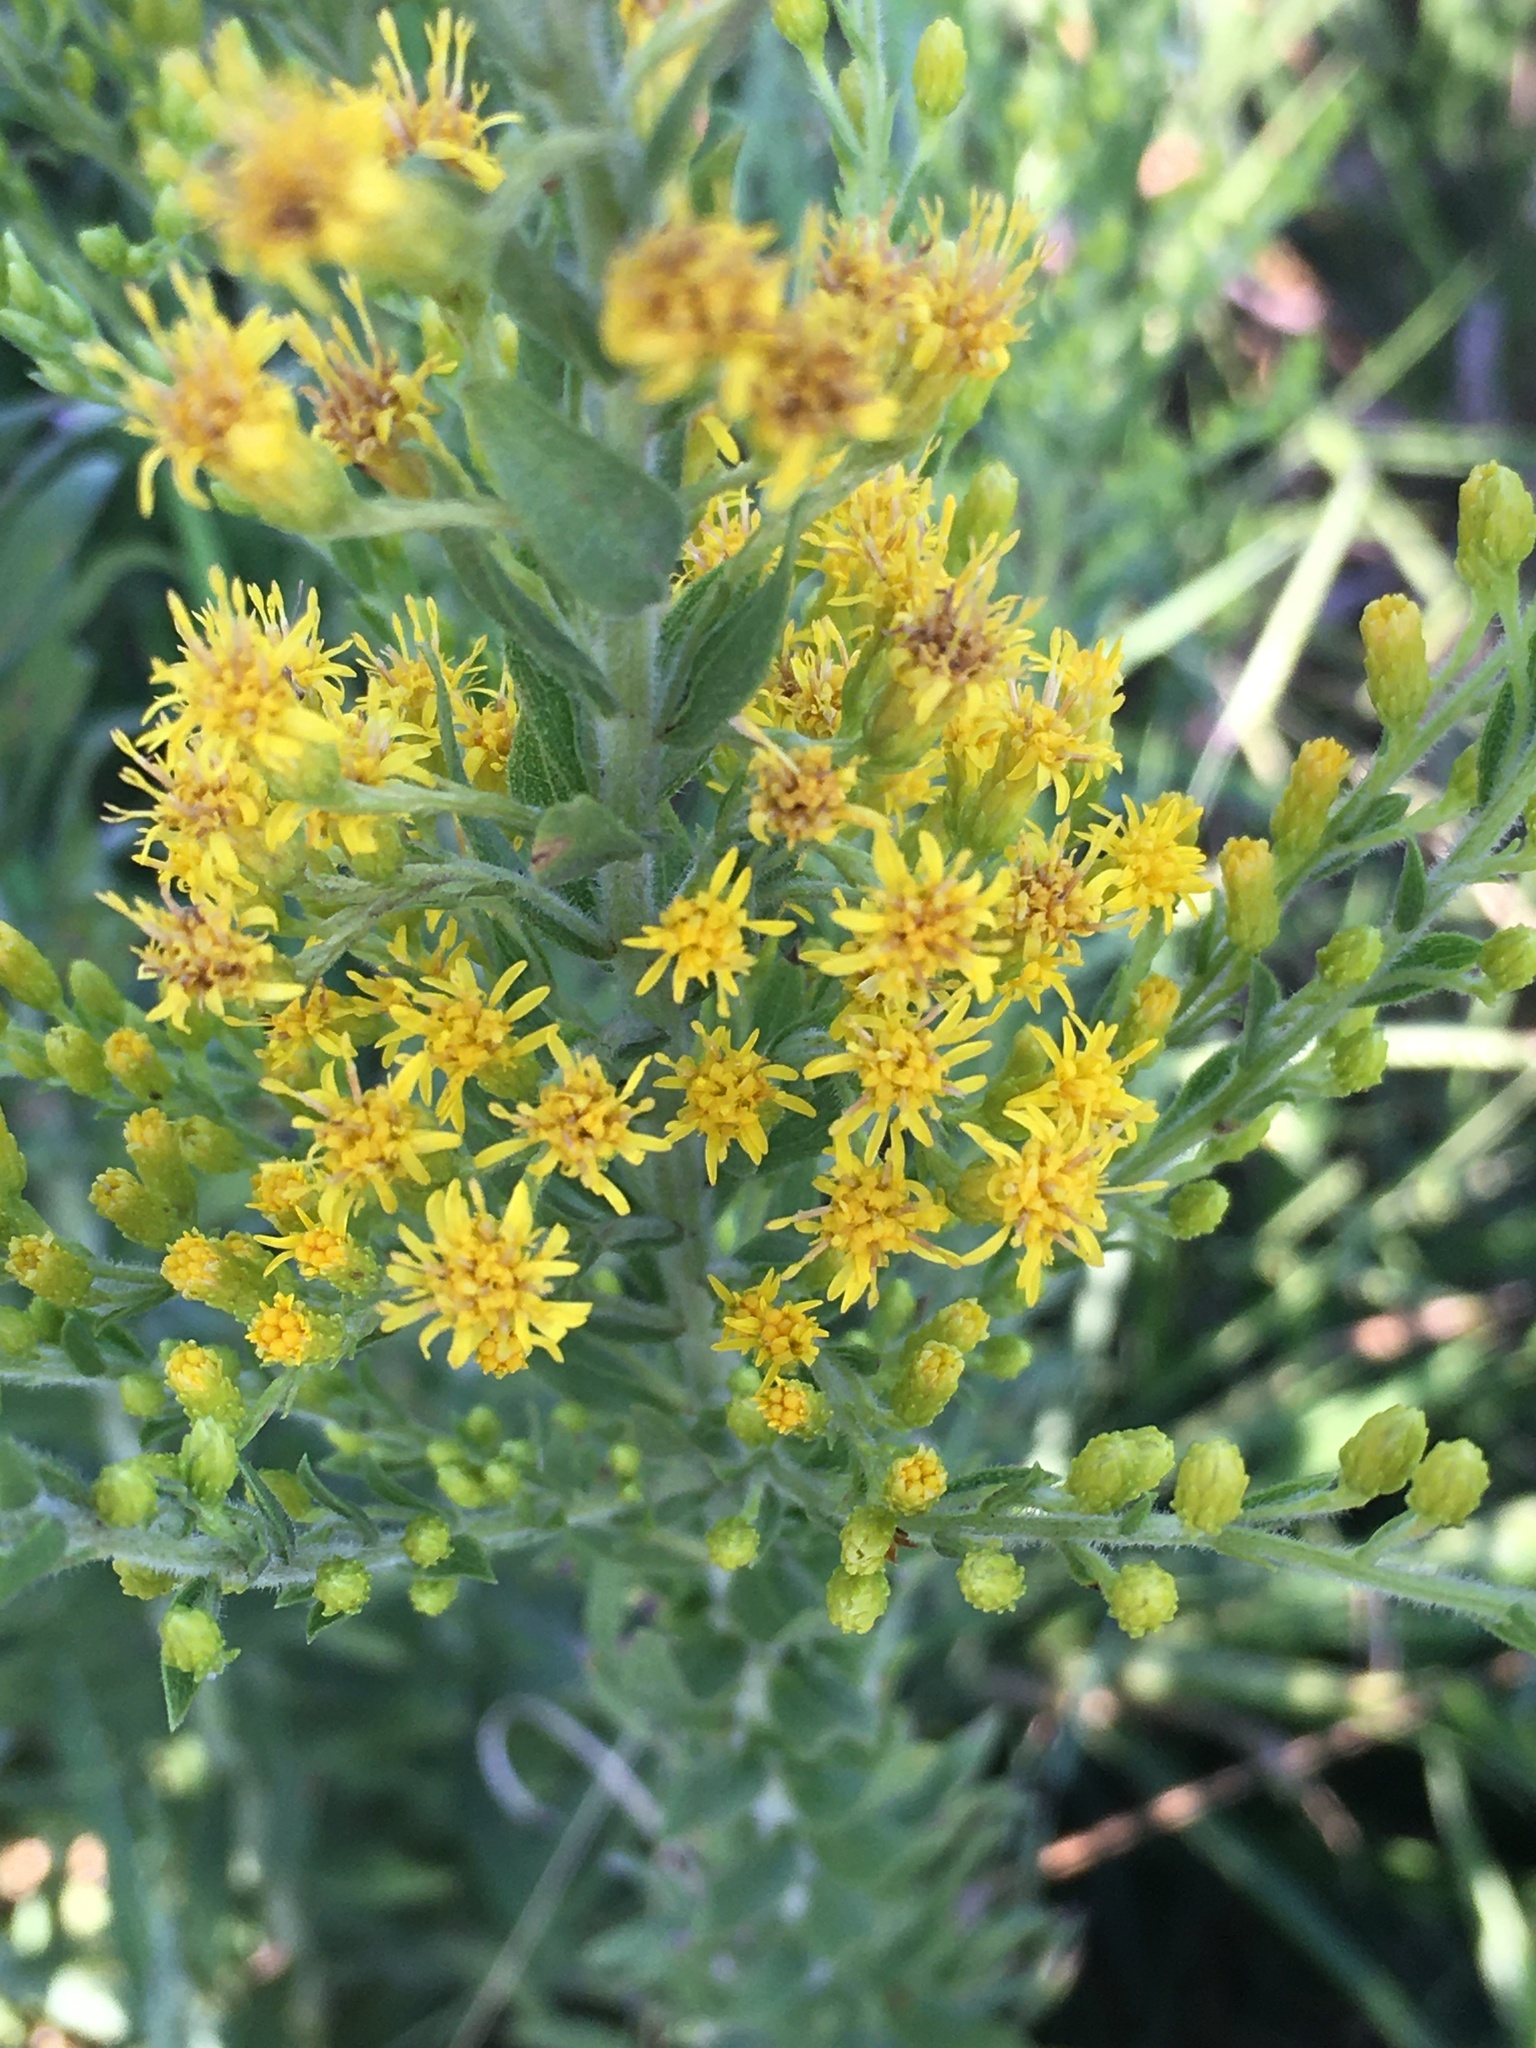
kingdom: Plantae
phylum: Tracheophyta
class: Magnoliopsida
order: Asterales
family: Asteraceae
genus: Solidago
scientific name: Solidago chilensis
